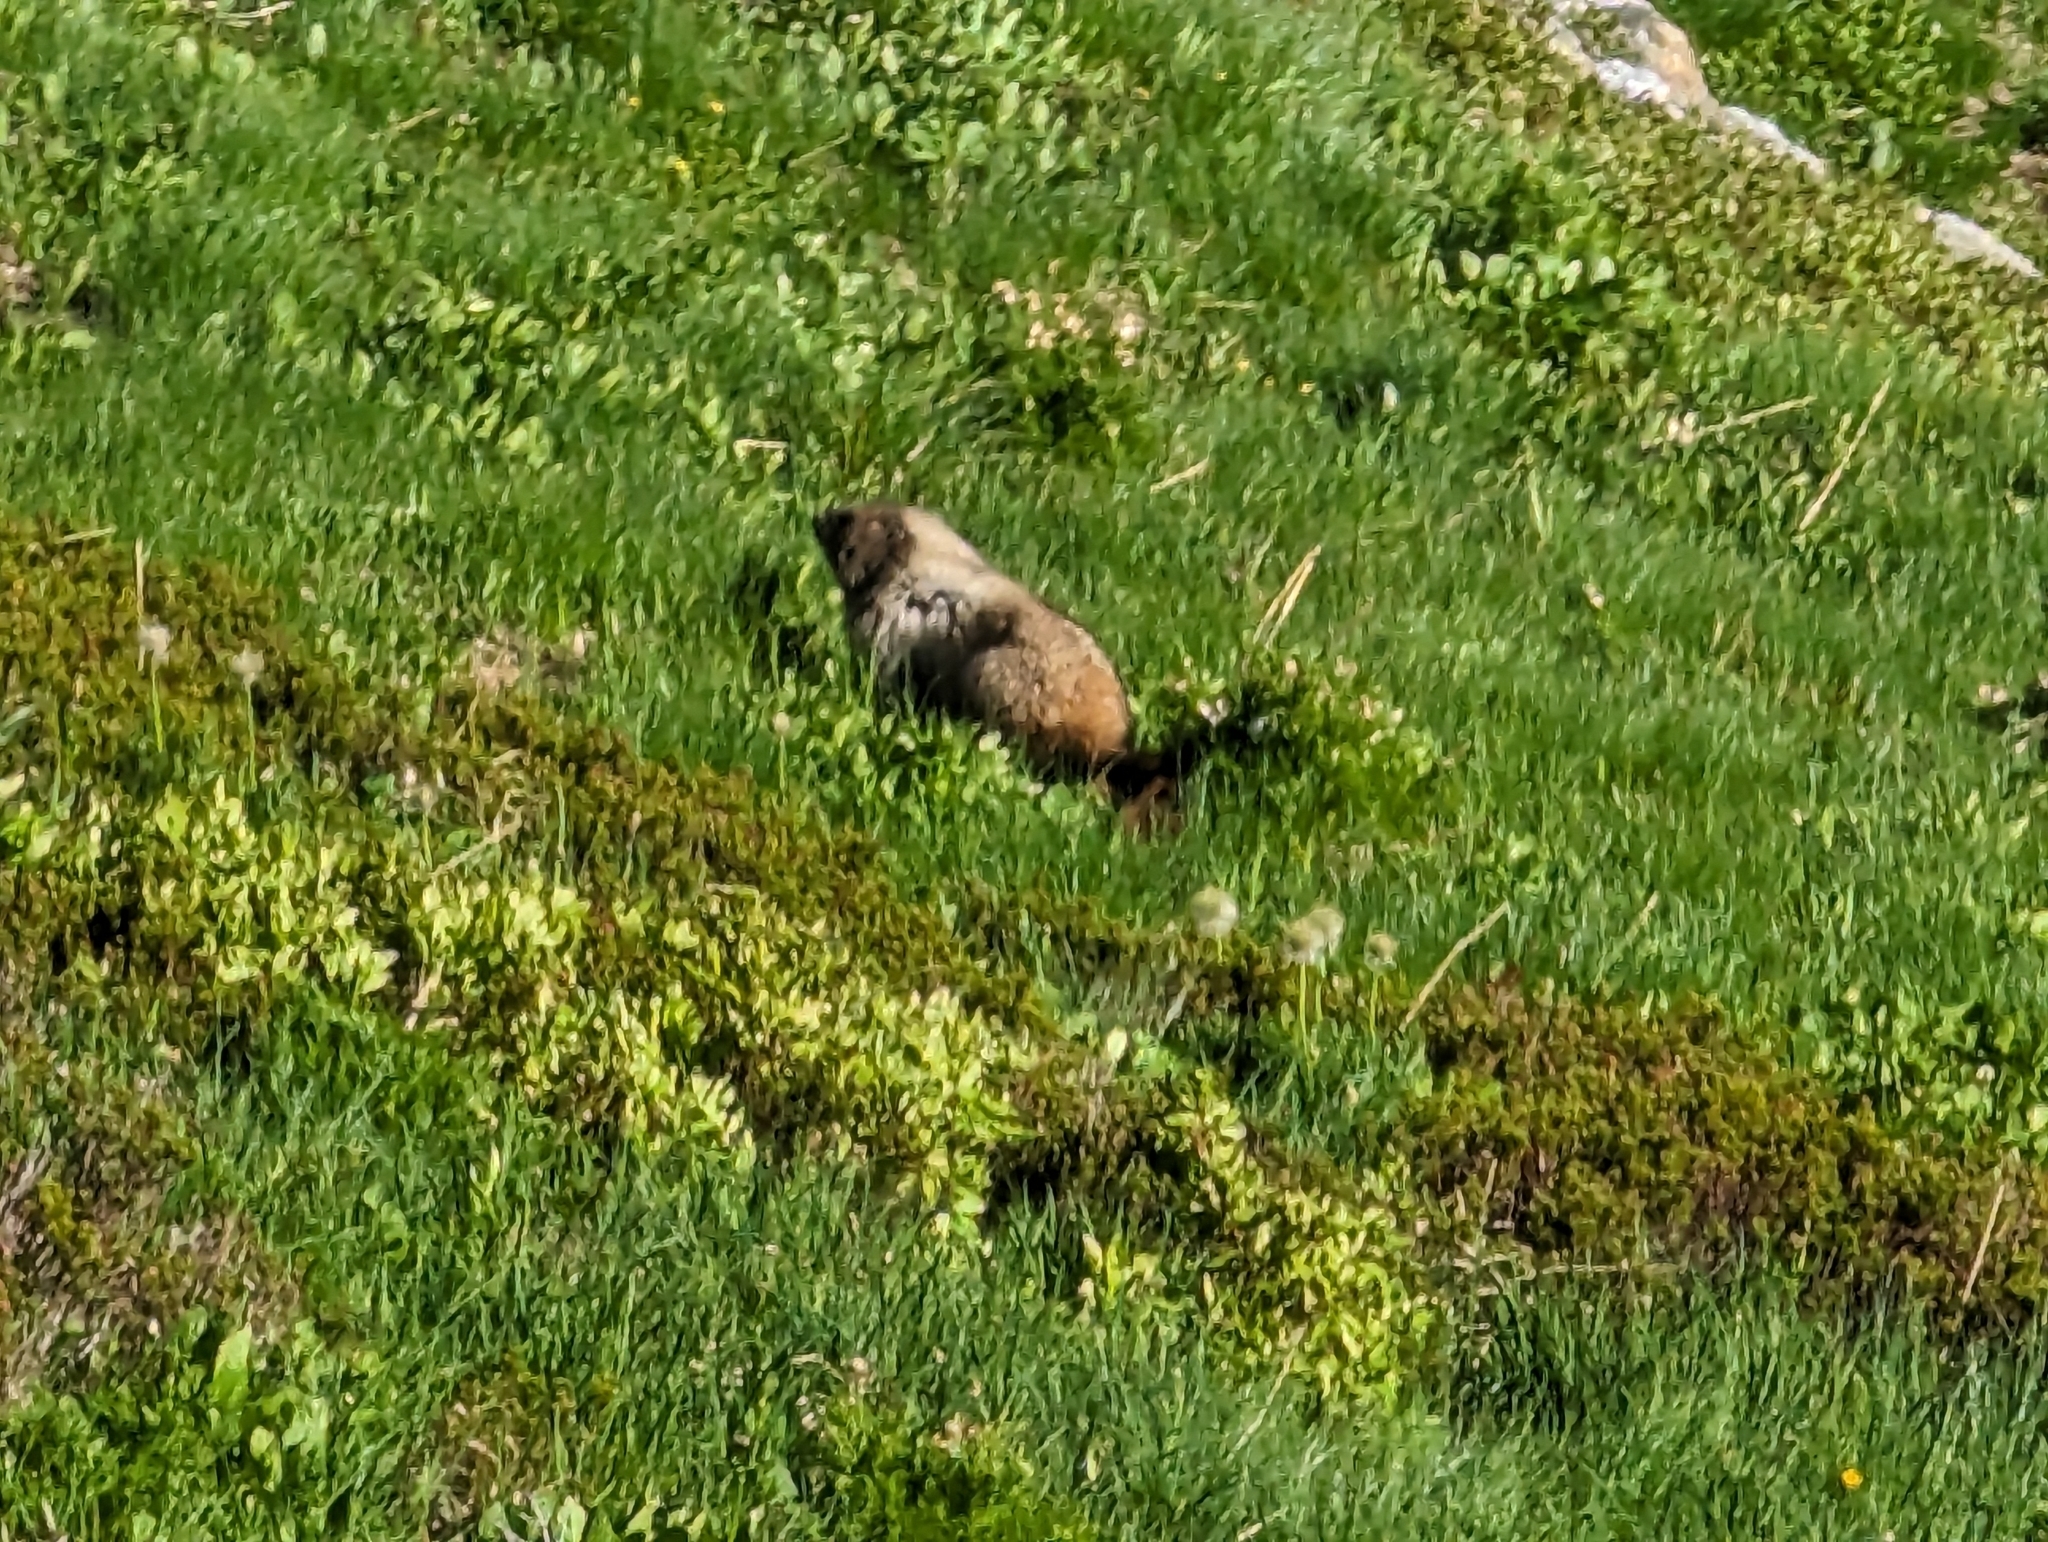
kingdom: Animalia
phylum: Chordata
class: Mammalia
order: Rodentia
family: Sciuridae
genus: Marmota
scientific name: Marmota caligata
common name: Hoary marmot
